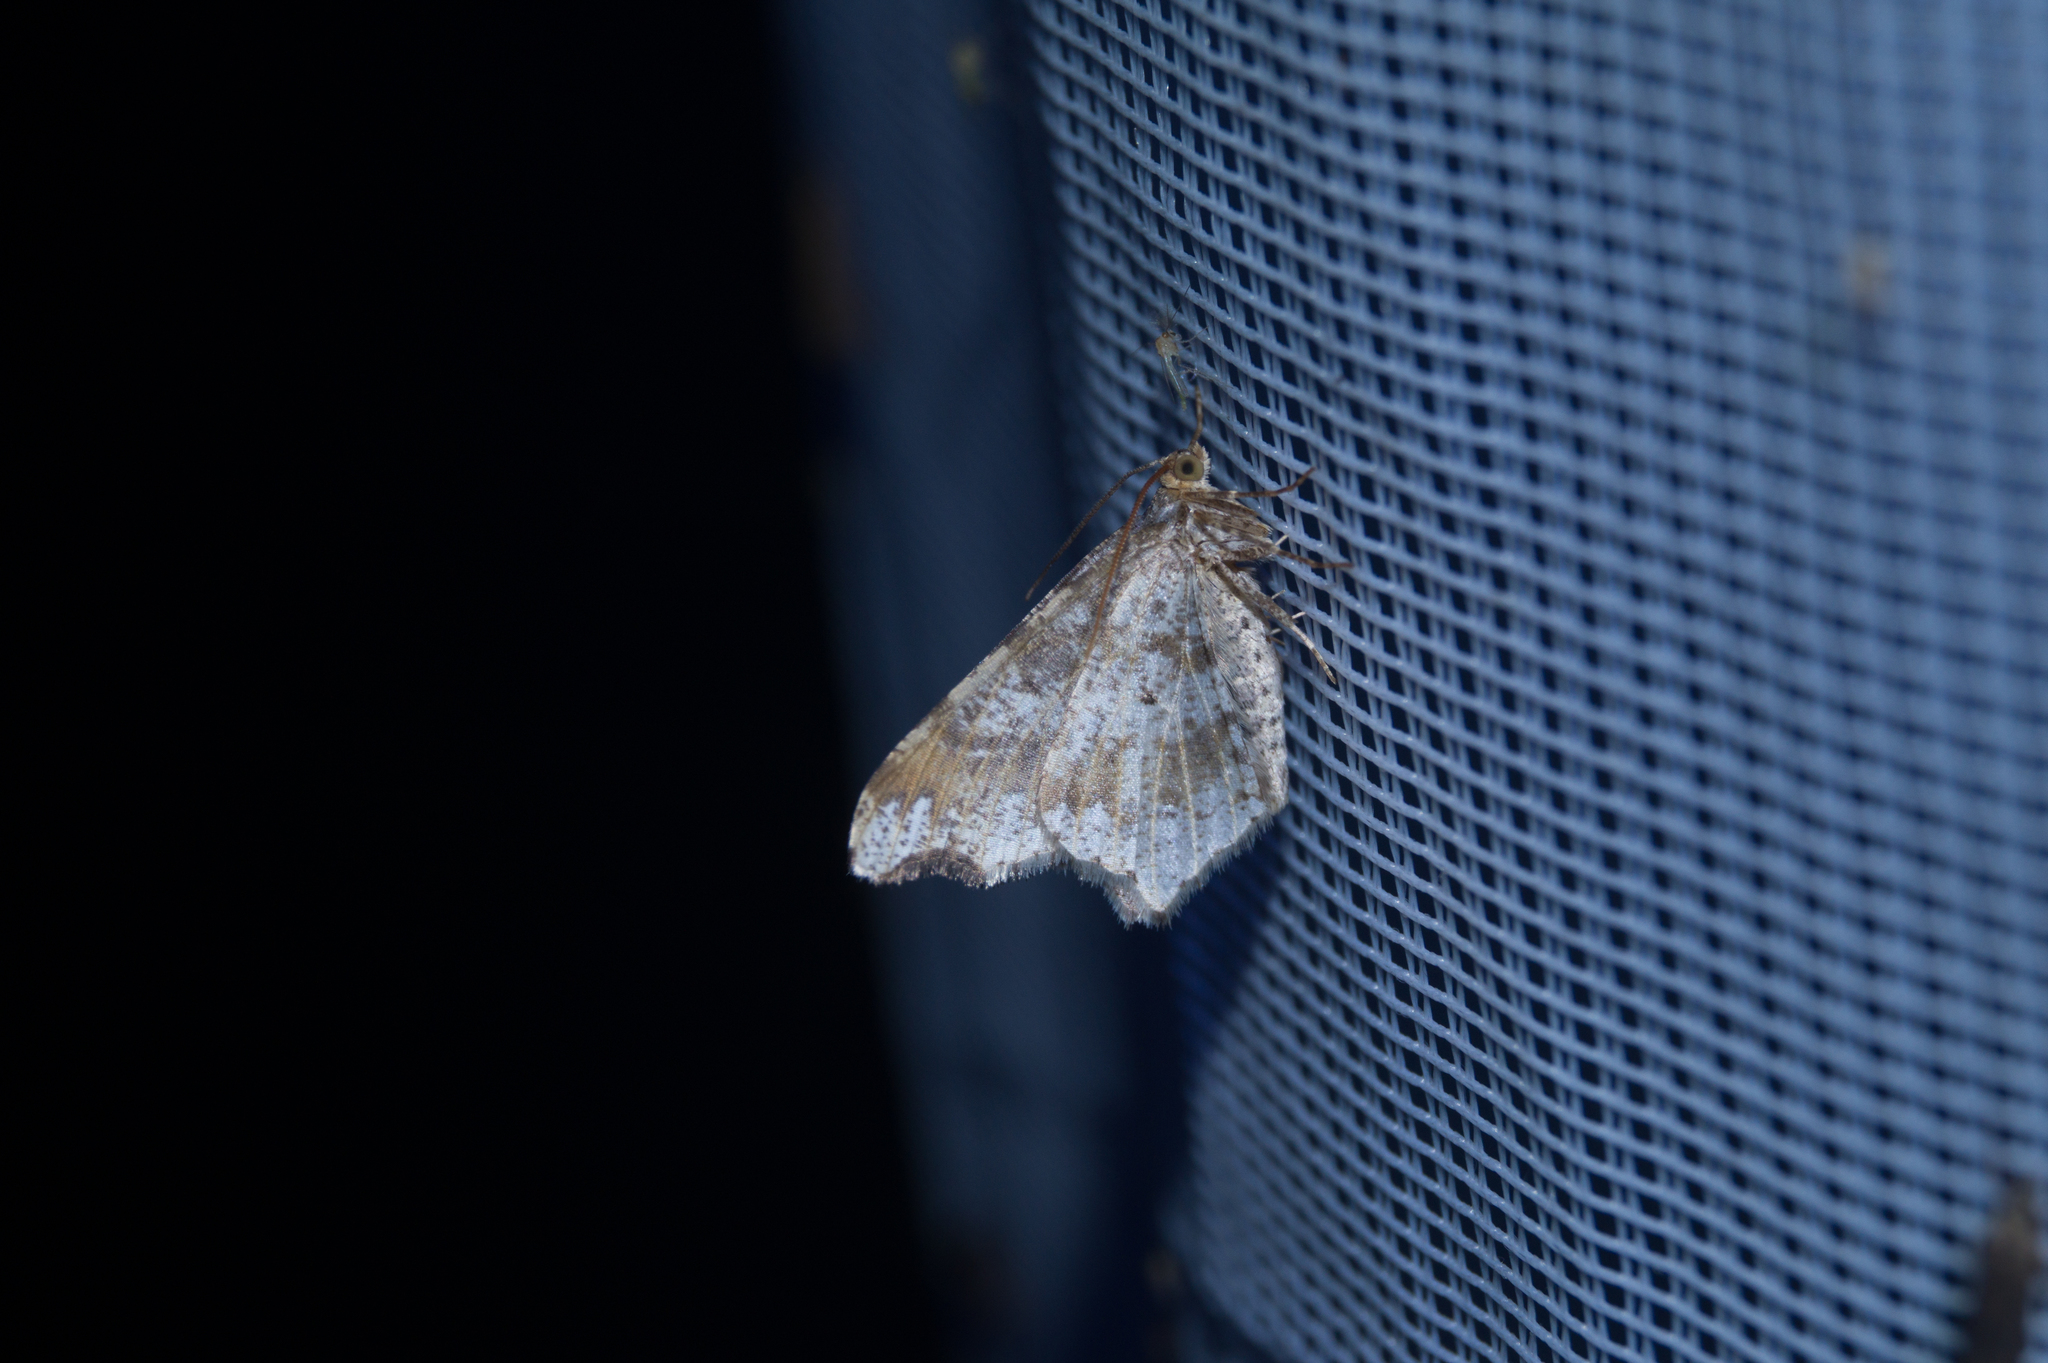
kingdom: Animalia
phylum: Arthropoda
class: Insecta
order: Lepidoptera
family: Geometridae
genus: Macaria
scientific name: Macaria alternata
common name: Sharp-angled peacock
